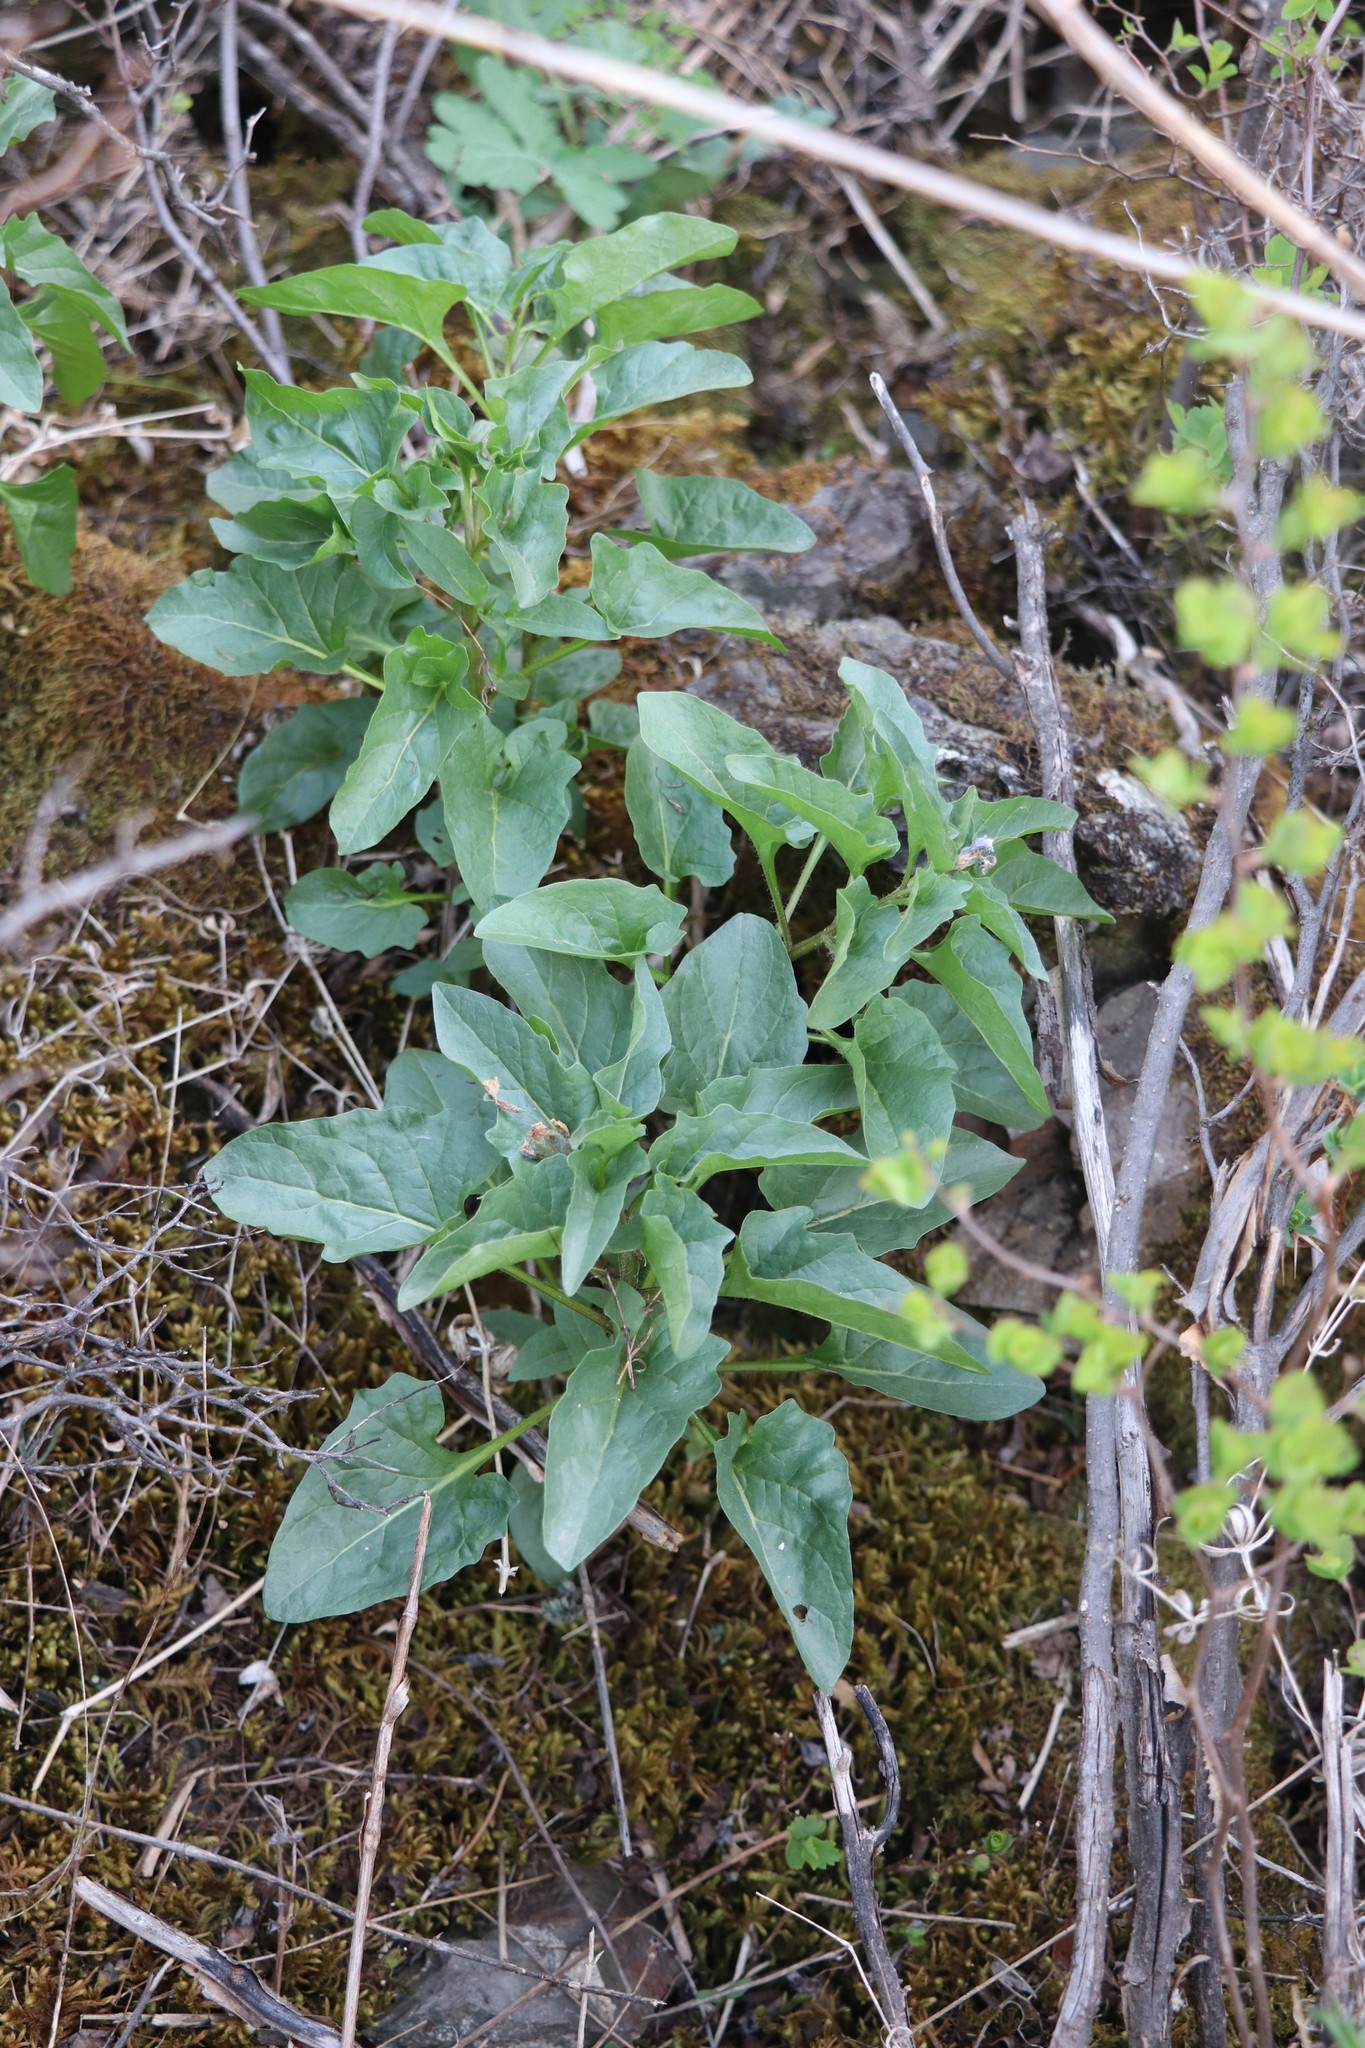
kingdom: Plantae
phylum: Tracheophyta
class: Magnoliopsida
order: Solanales
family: Solanaceae
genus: Physochlaina
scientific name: Physochlaina physaloides
